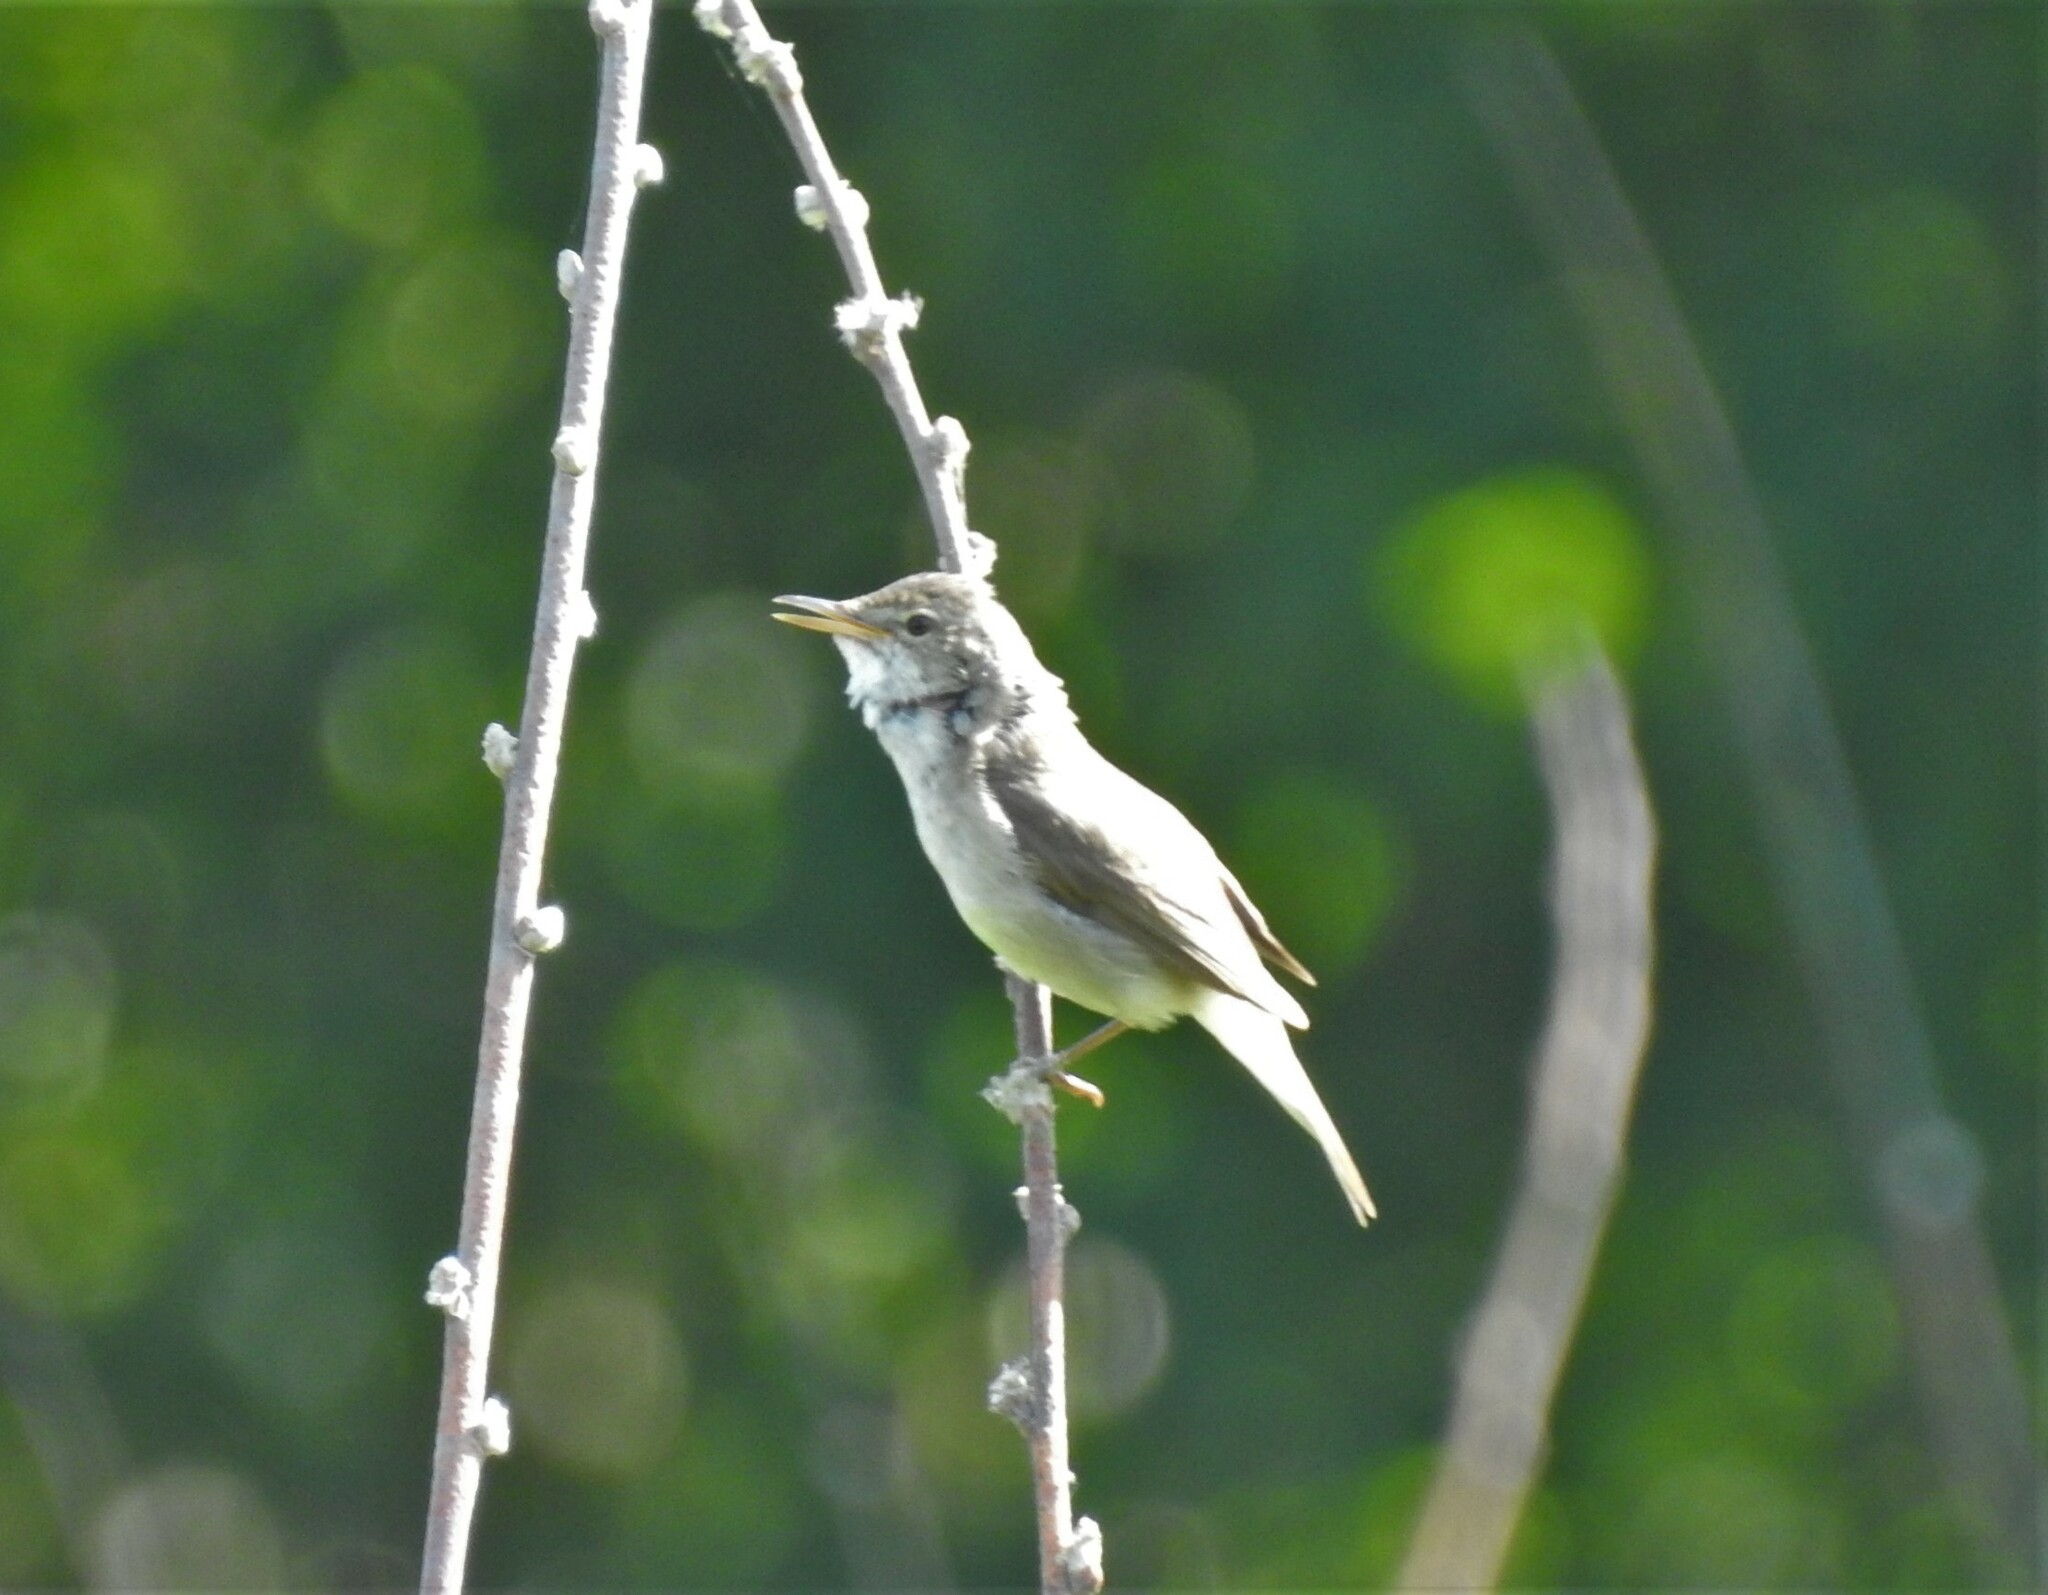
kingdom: Animalia
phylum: Chordata
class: Aves
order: Passeriformes
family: Acrocephalidae
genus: Acrocephalus
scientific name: Acrocephalus dumetorum
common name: Blyth's reed warbler
